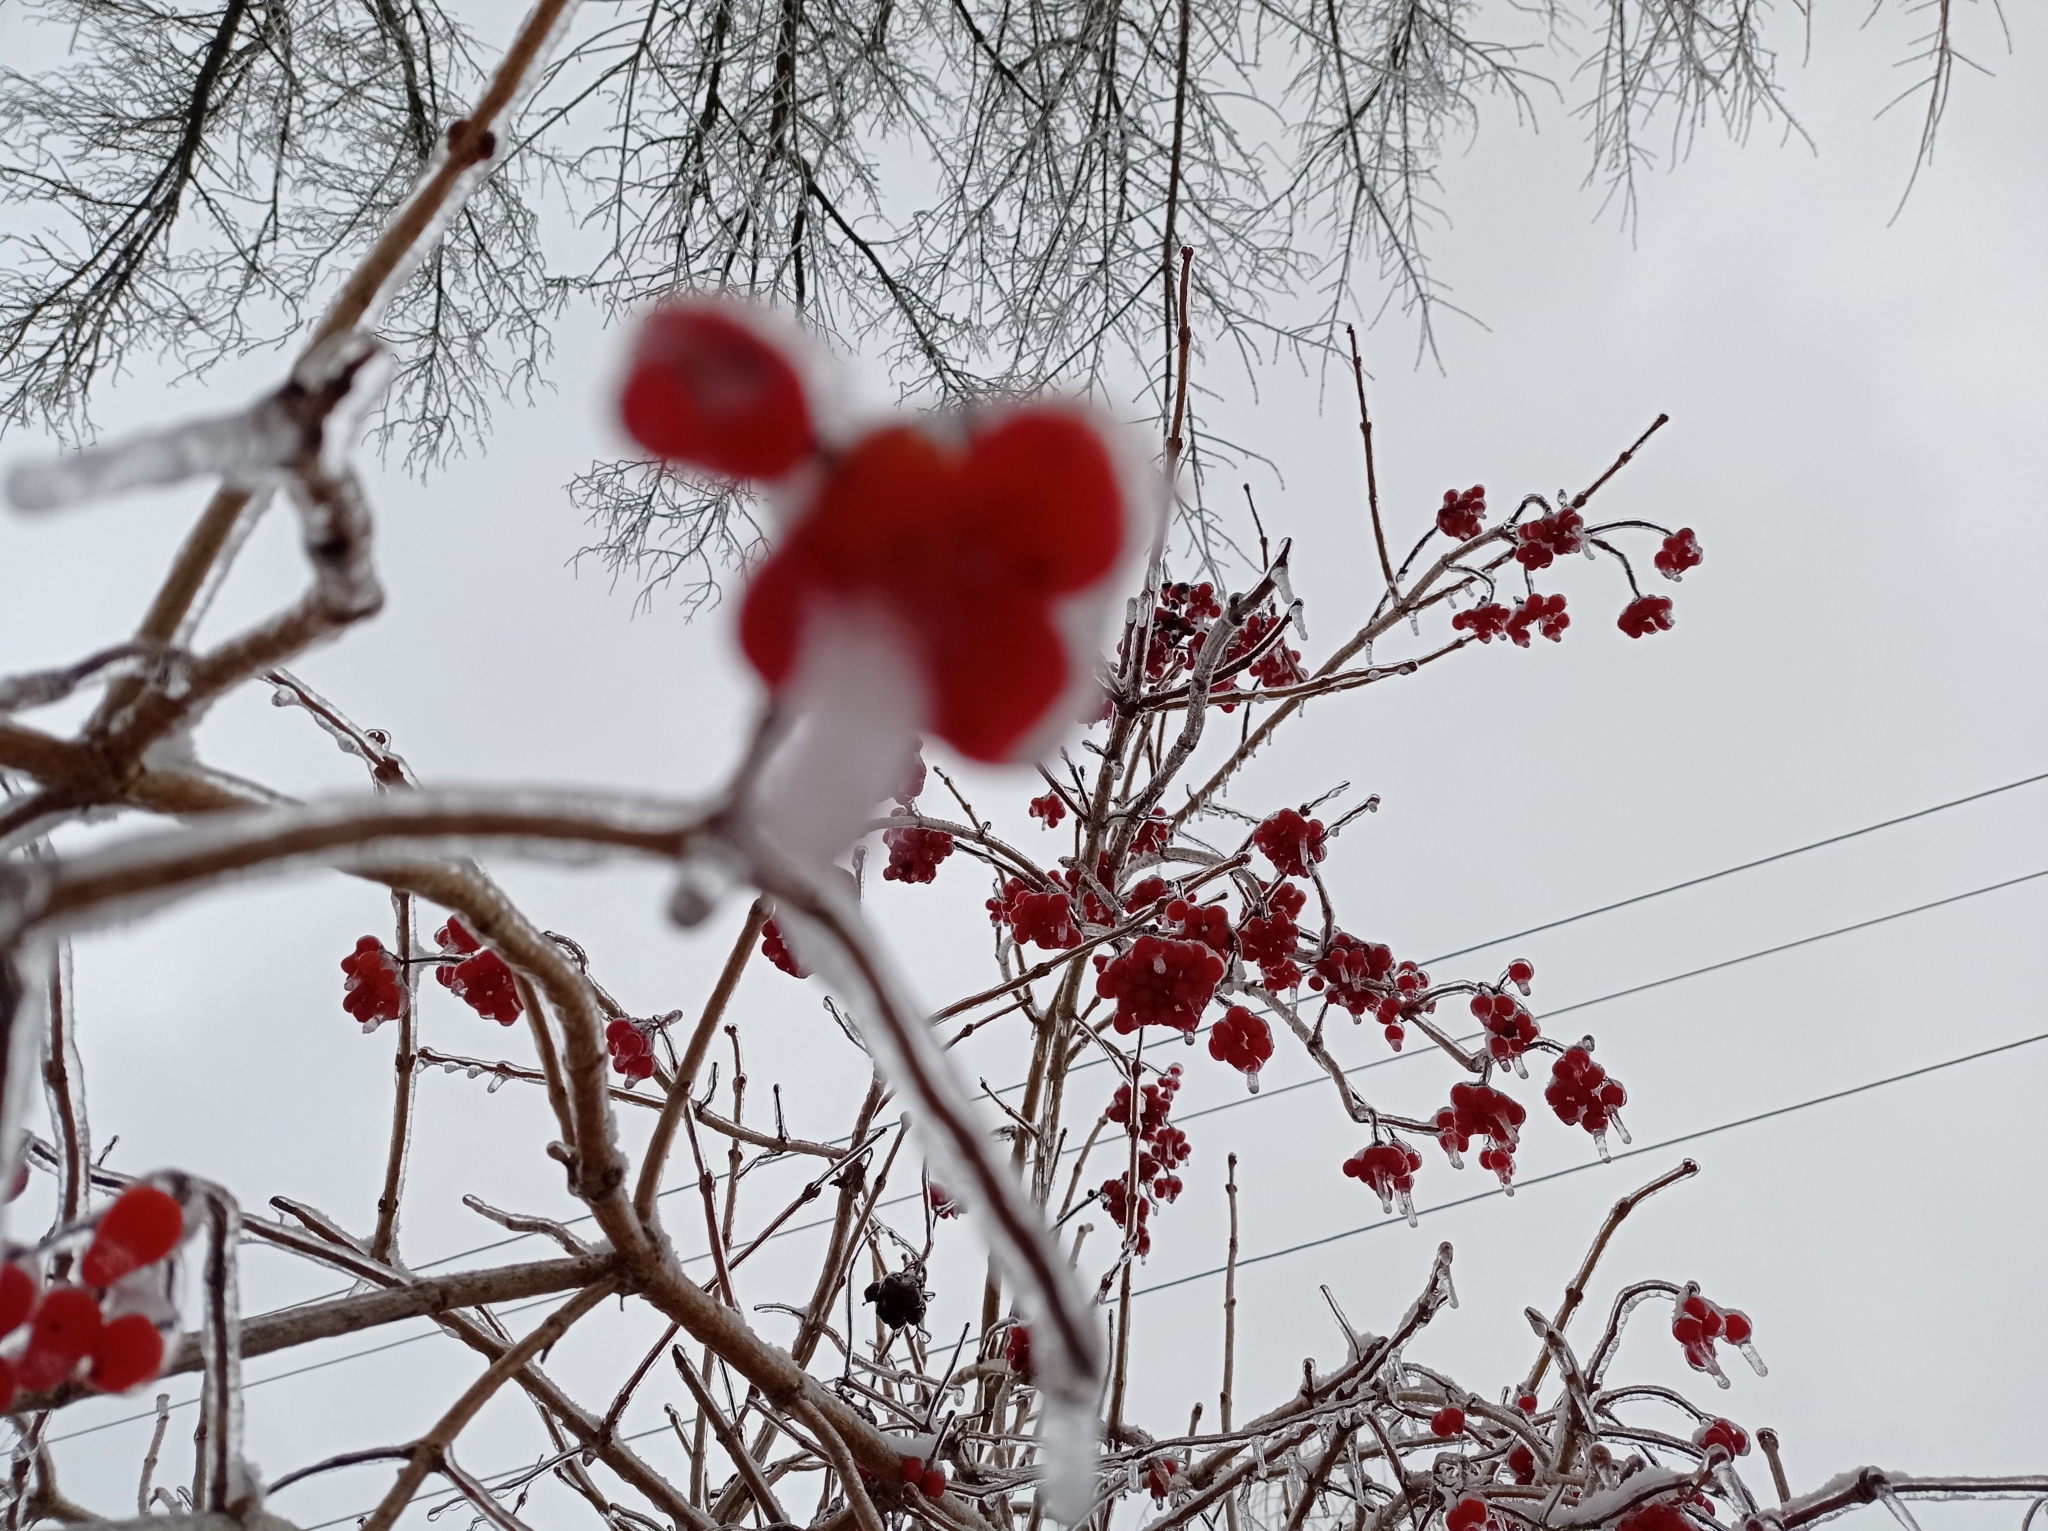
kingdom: Plantae
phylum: Tracheophyta
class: Magnoliopsida
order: Dipsacales
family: Viburnaceae
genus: Viburnum
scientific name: Viburnum opulus
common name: Guelder-rose
